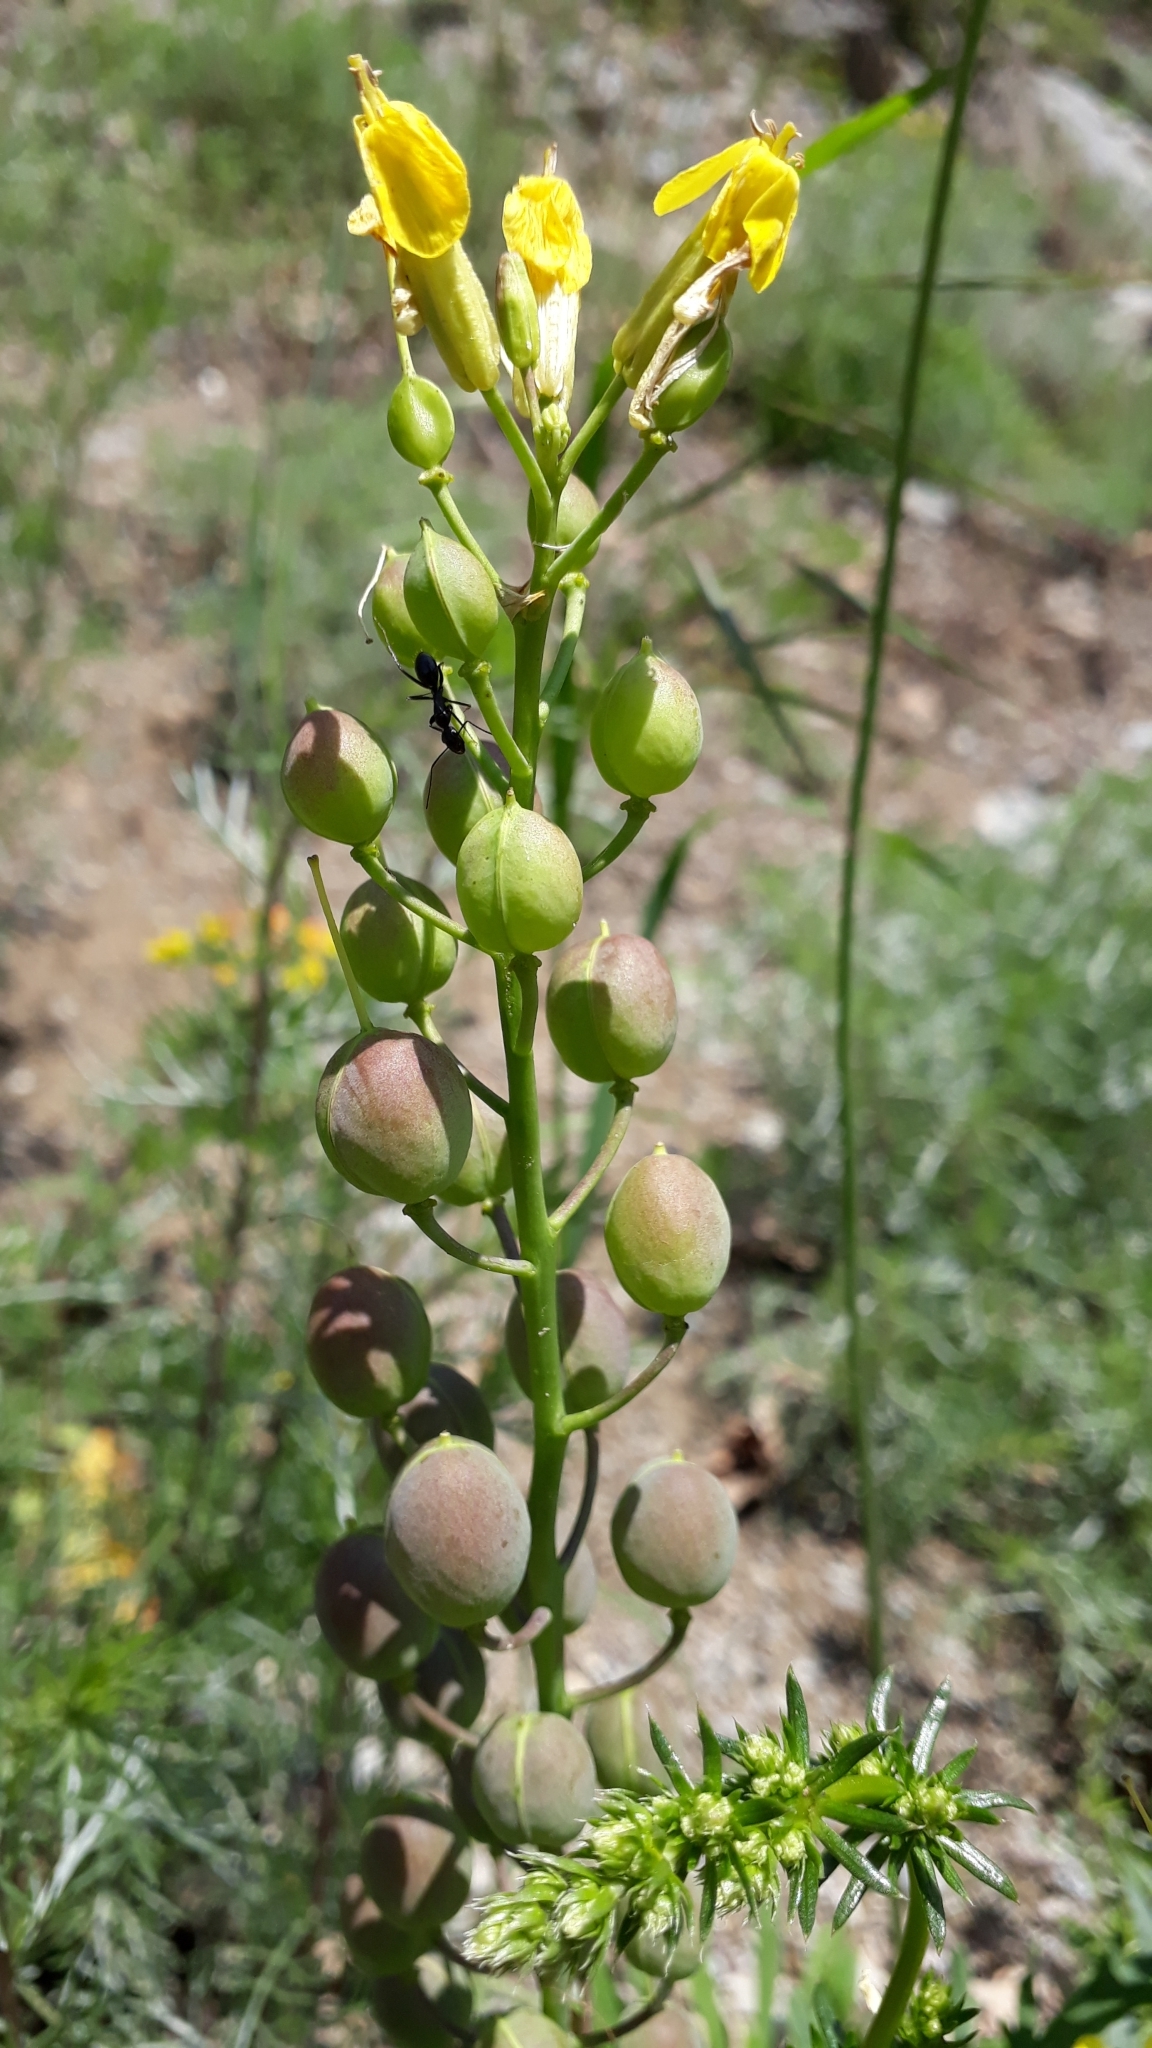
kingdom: Plantae
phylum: Tracheophyta
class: Magnoliopsida
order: Brassicales
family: Brassicaceae
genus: Alyssoides
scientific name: Alyssoides utriculata
